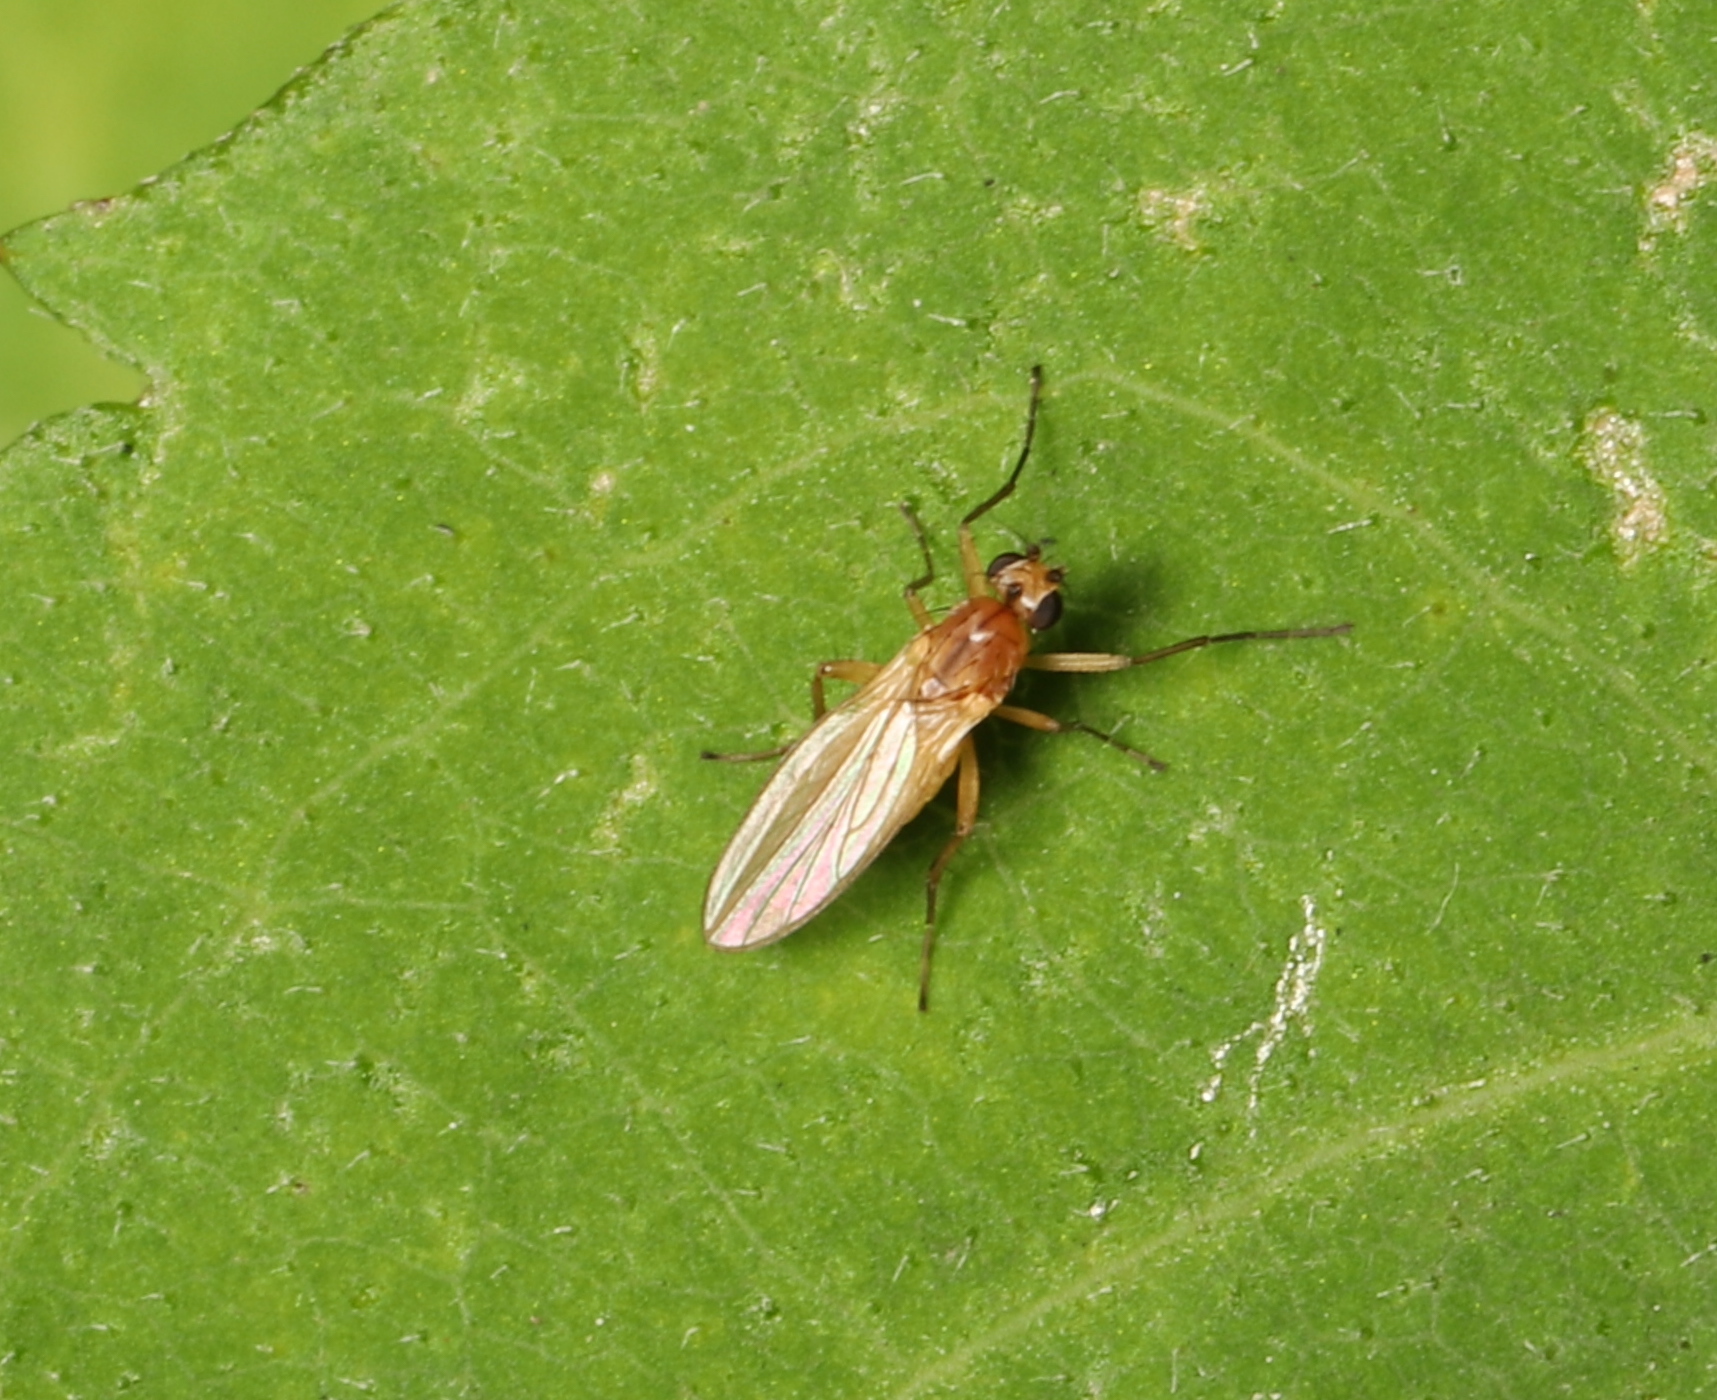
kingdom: Animalia
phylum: Arthropoda
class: Insecta
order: Diptera
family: Lonchopteridae
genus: Lonchoptera
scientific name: Lonchoptera bifurcata
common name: Spear-winged fly
